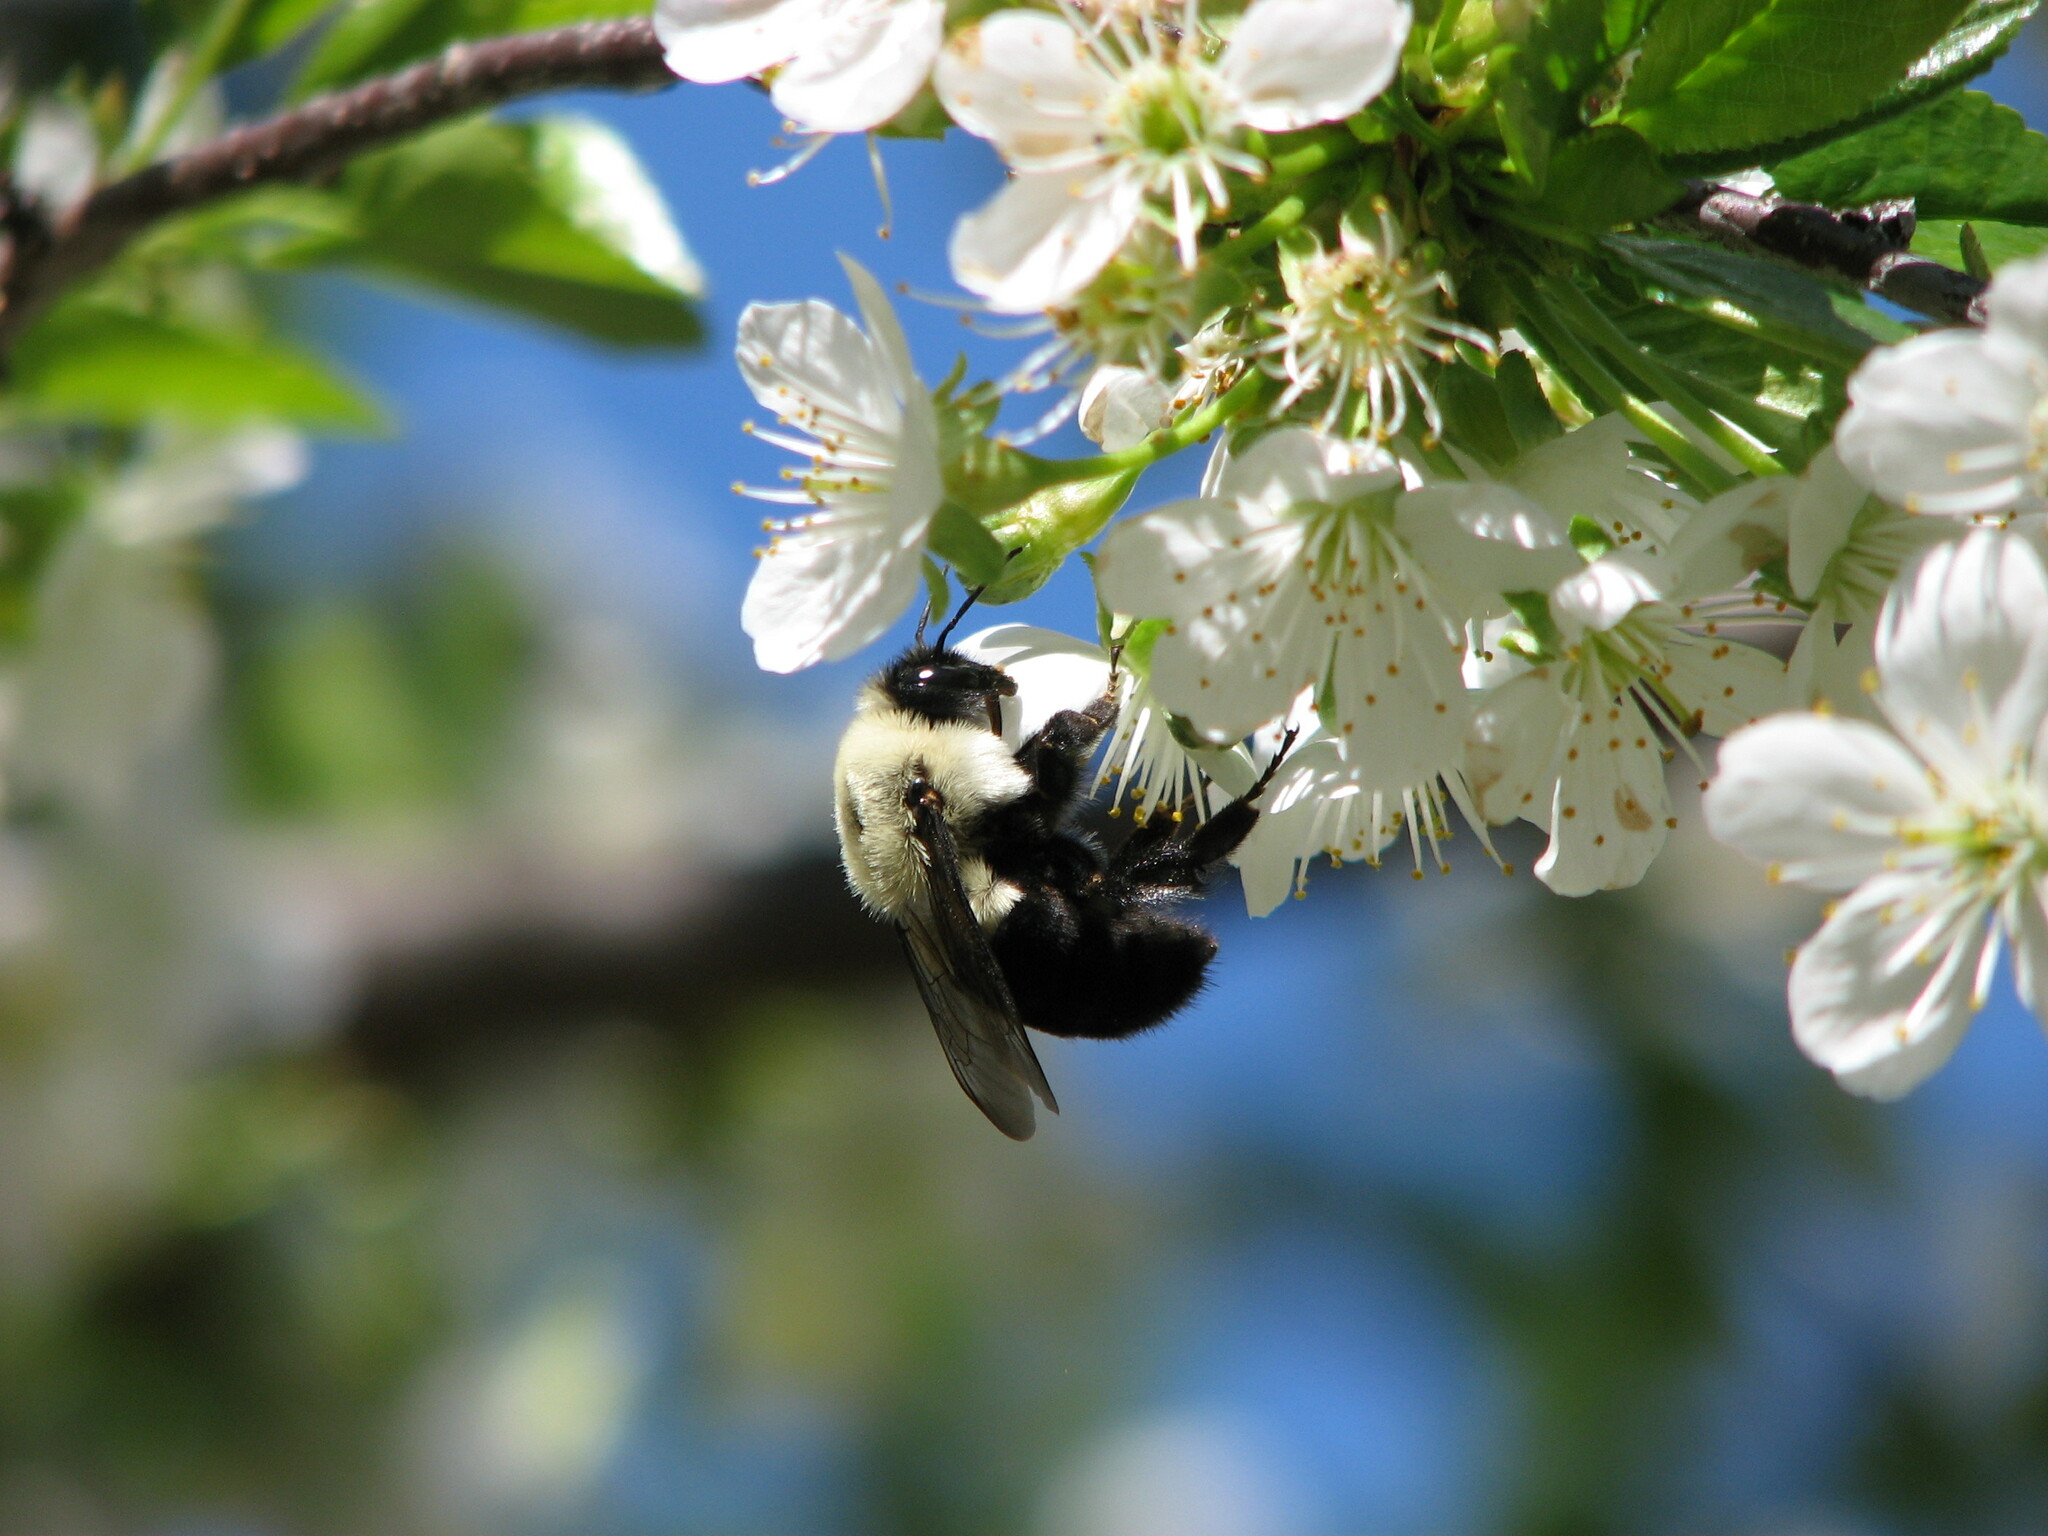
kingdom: Animalia
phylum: Arthropoda
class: Insecta
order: Hymenoptera
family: Apidae
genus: Bombus
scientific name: Bombus impatiens
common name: Common eastern bumble bee
